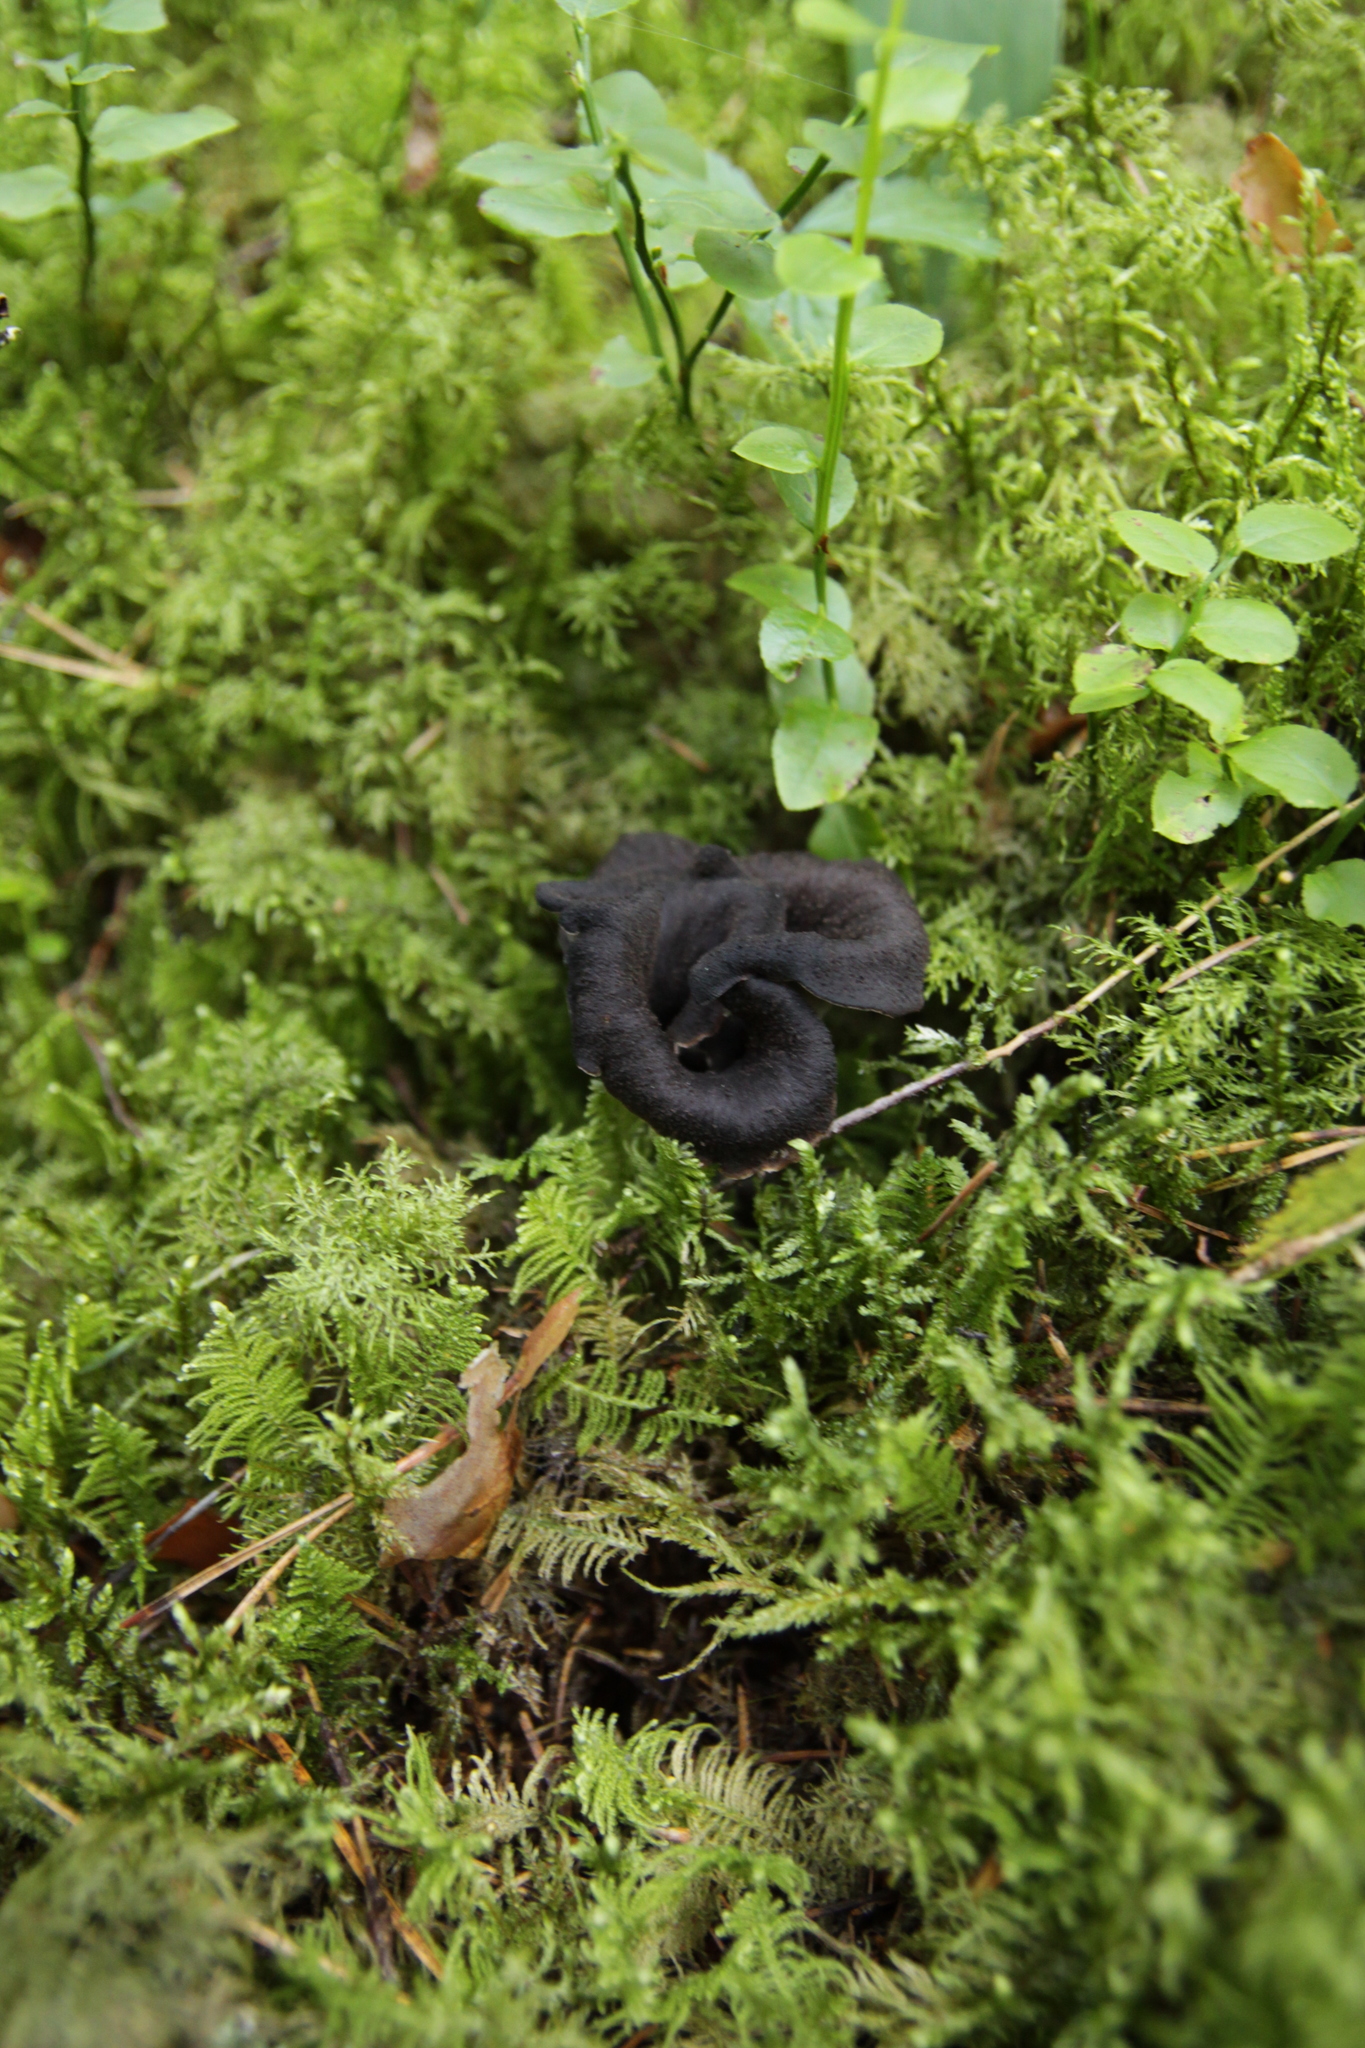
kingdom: Fungi
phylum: Basidiomycota
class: Agaricomycetes
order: Cantharellales
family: Hydnaceae
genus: Craterellus
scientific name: Craterellus cornucopioides
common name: Horn of plenty
